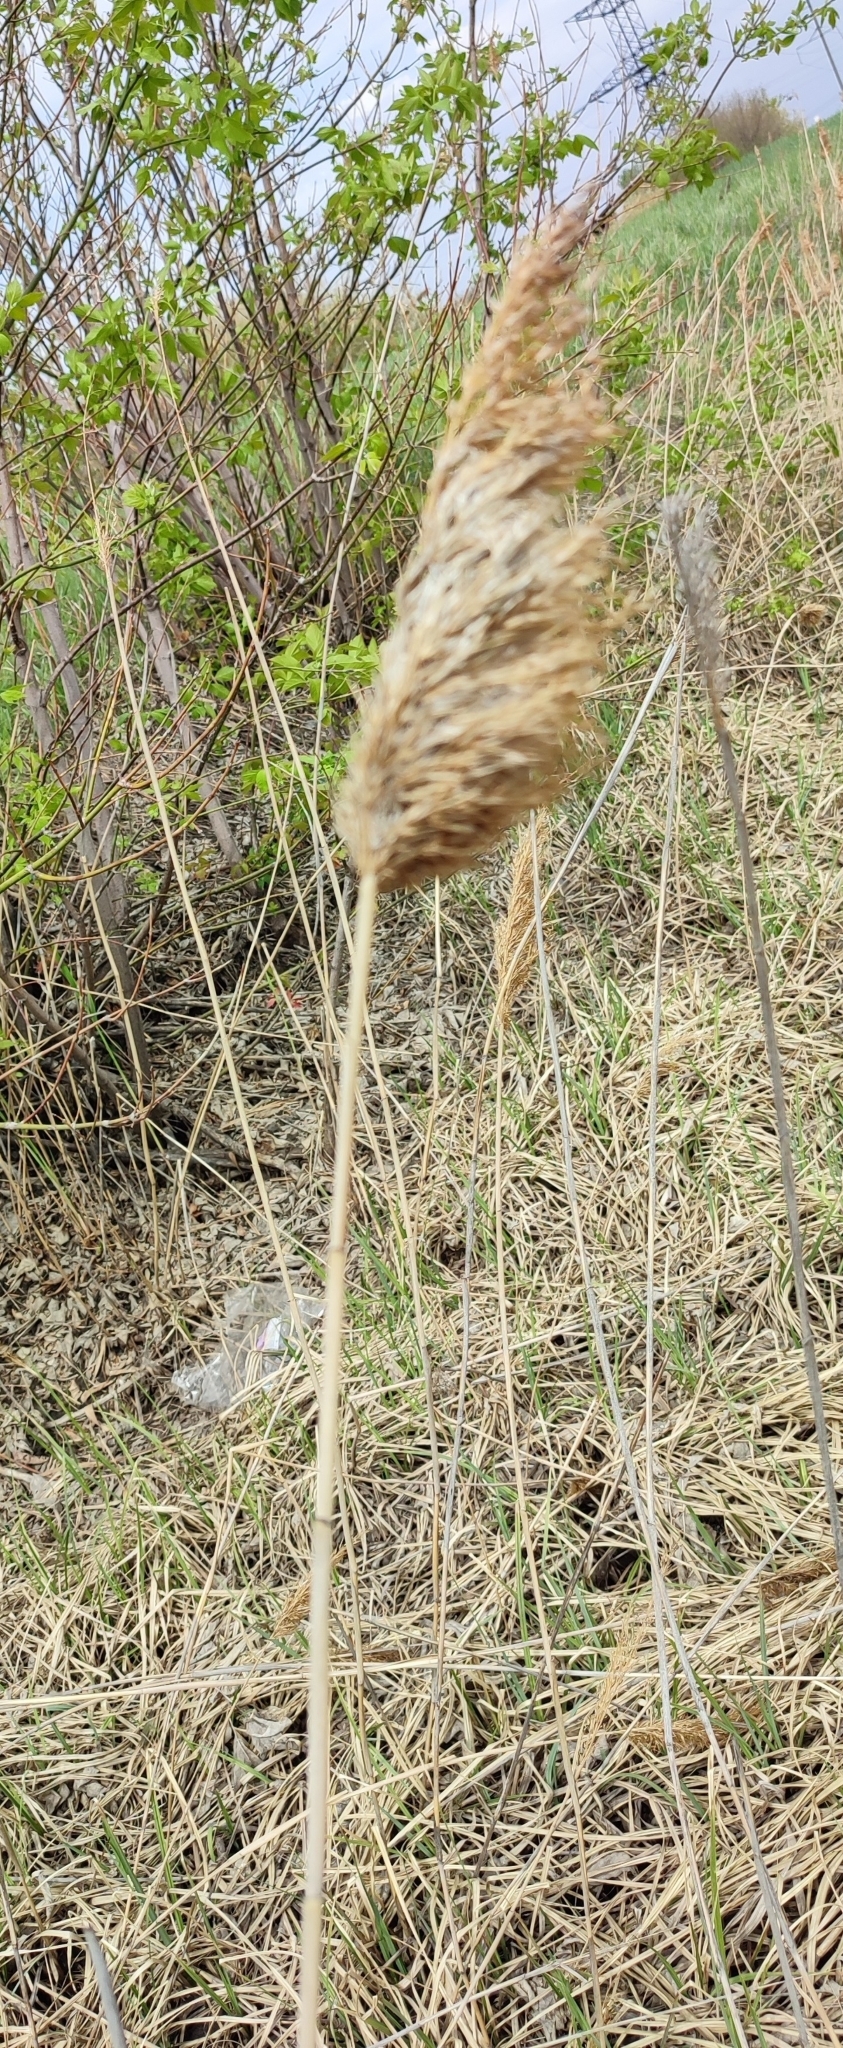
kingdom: Plantae
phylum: Tracheophyta
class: Liliopsida
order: Poales
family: Poaceae
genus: Phragmites
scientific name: Phragmites australis
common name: Common reed
